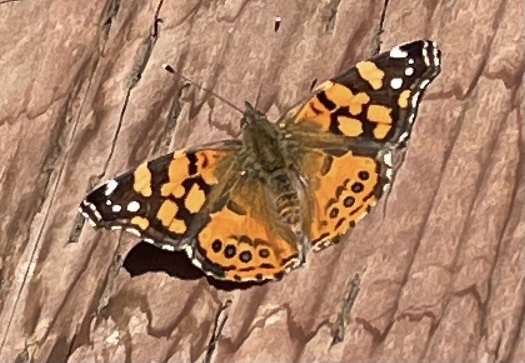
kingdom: Animalia
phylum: Arthropoda
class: Insecta
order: Lepidoptera
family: Nymphalidae
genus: Vanessa
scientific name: Vanessa annabella
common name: West coast lady
